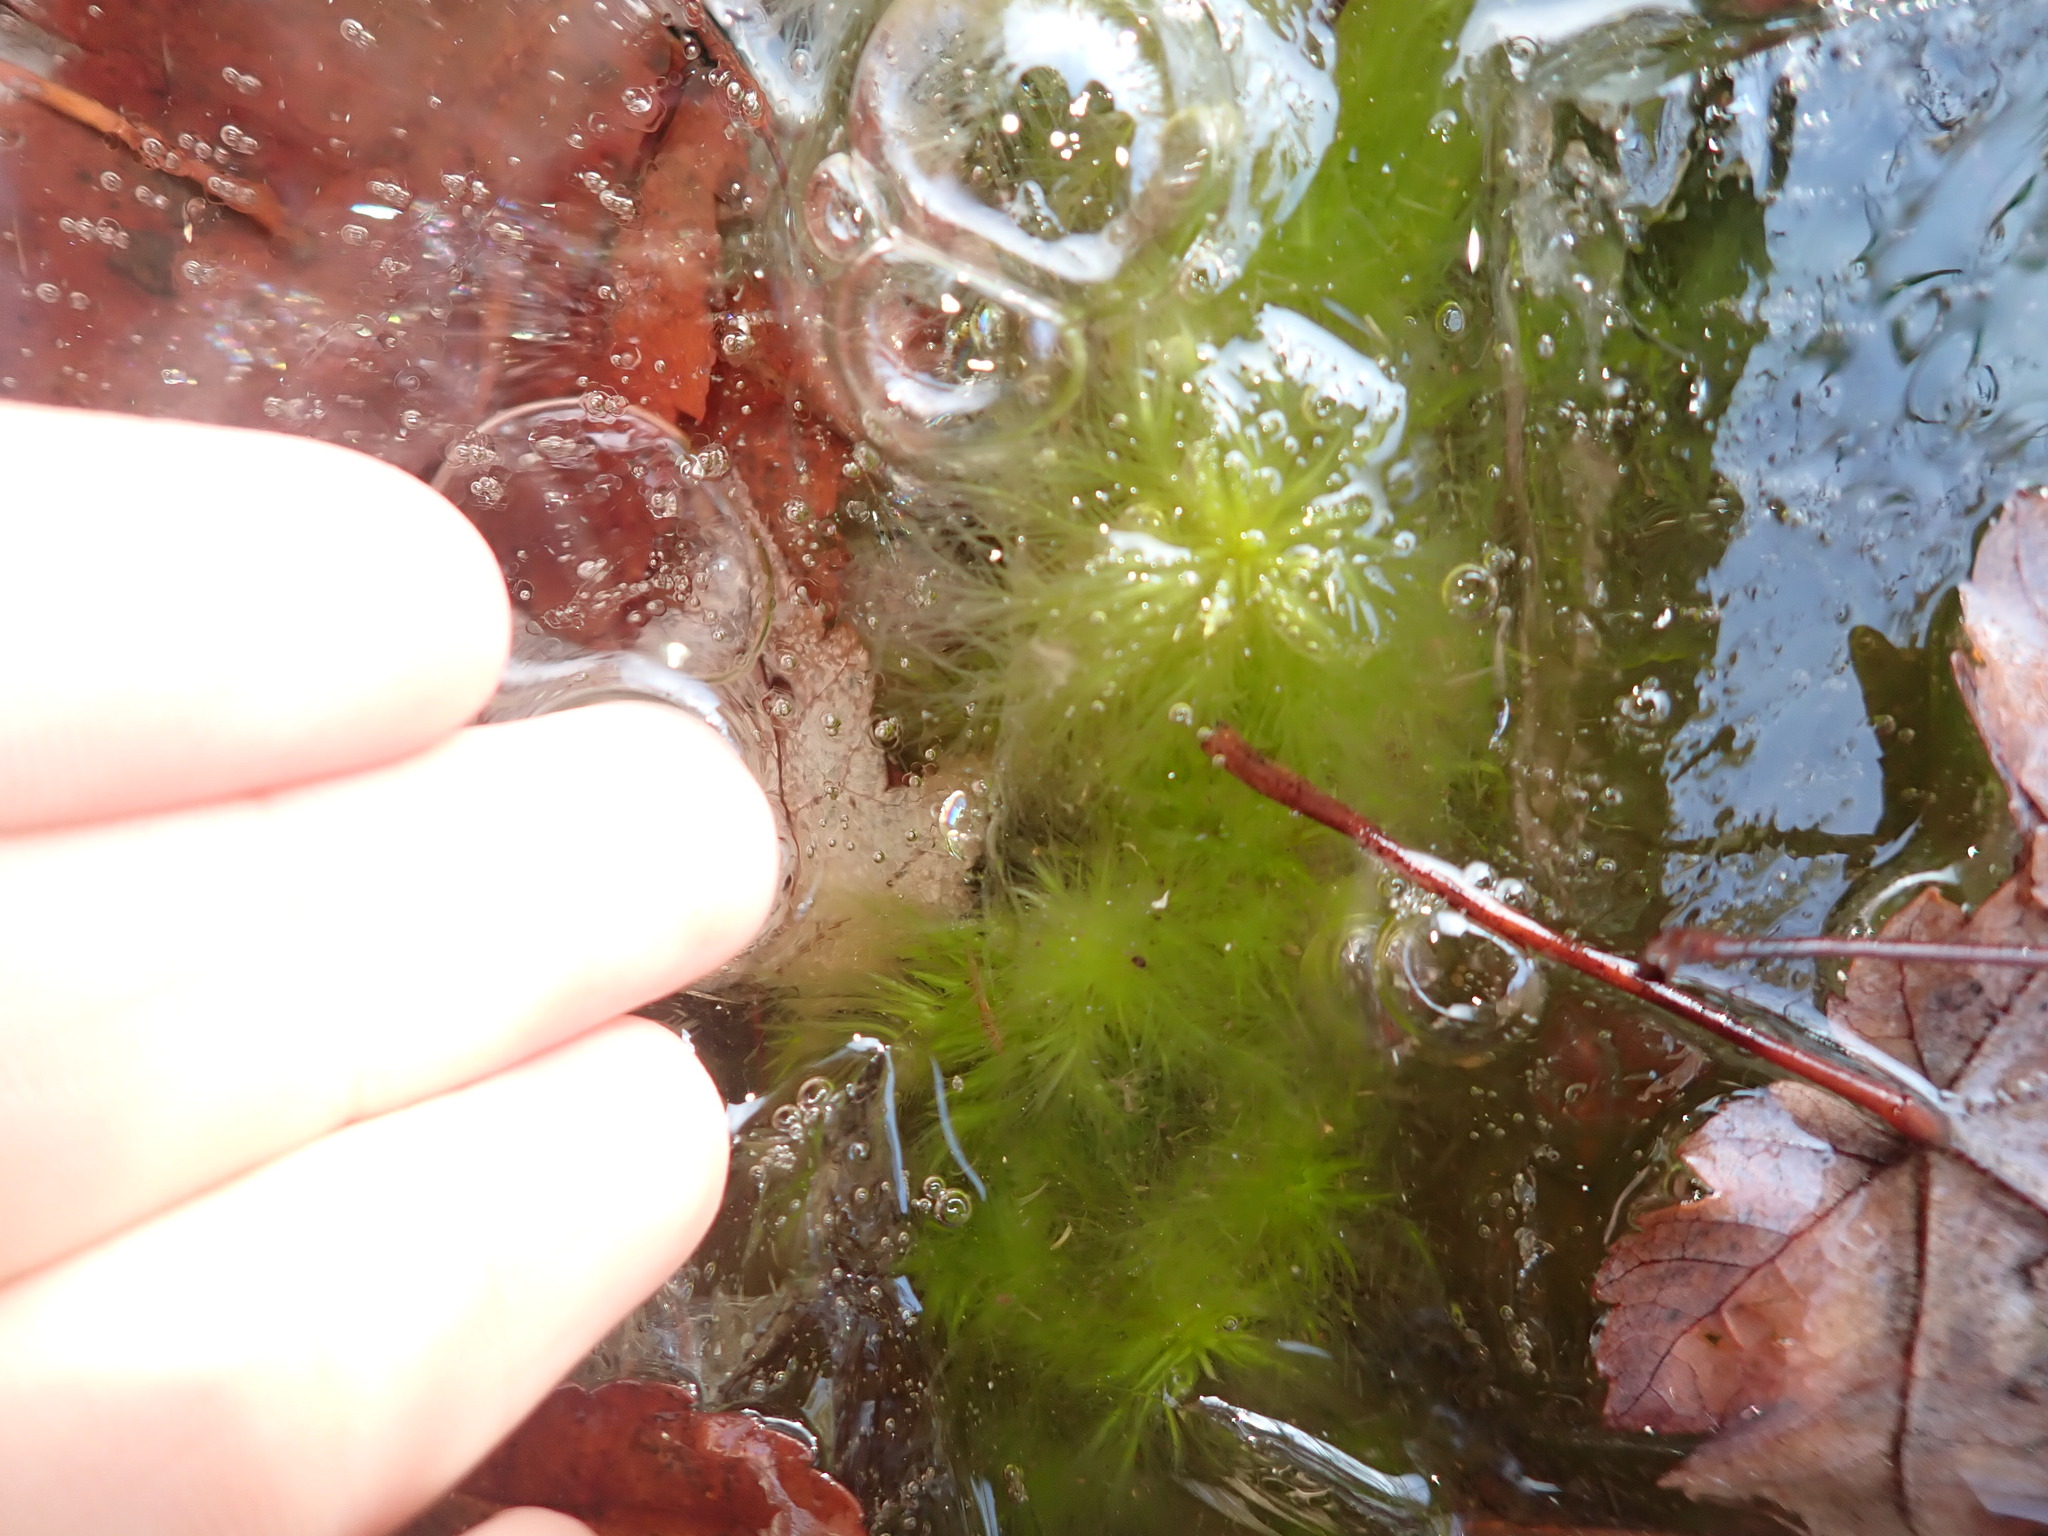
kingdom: Plantae
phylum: Bryophyta
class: Sphagnopsida
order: Sphagnales
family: Sphagnaceae
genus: Sphagnum
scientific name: Sphagnum
